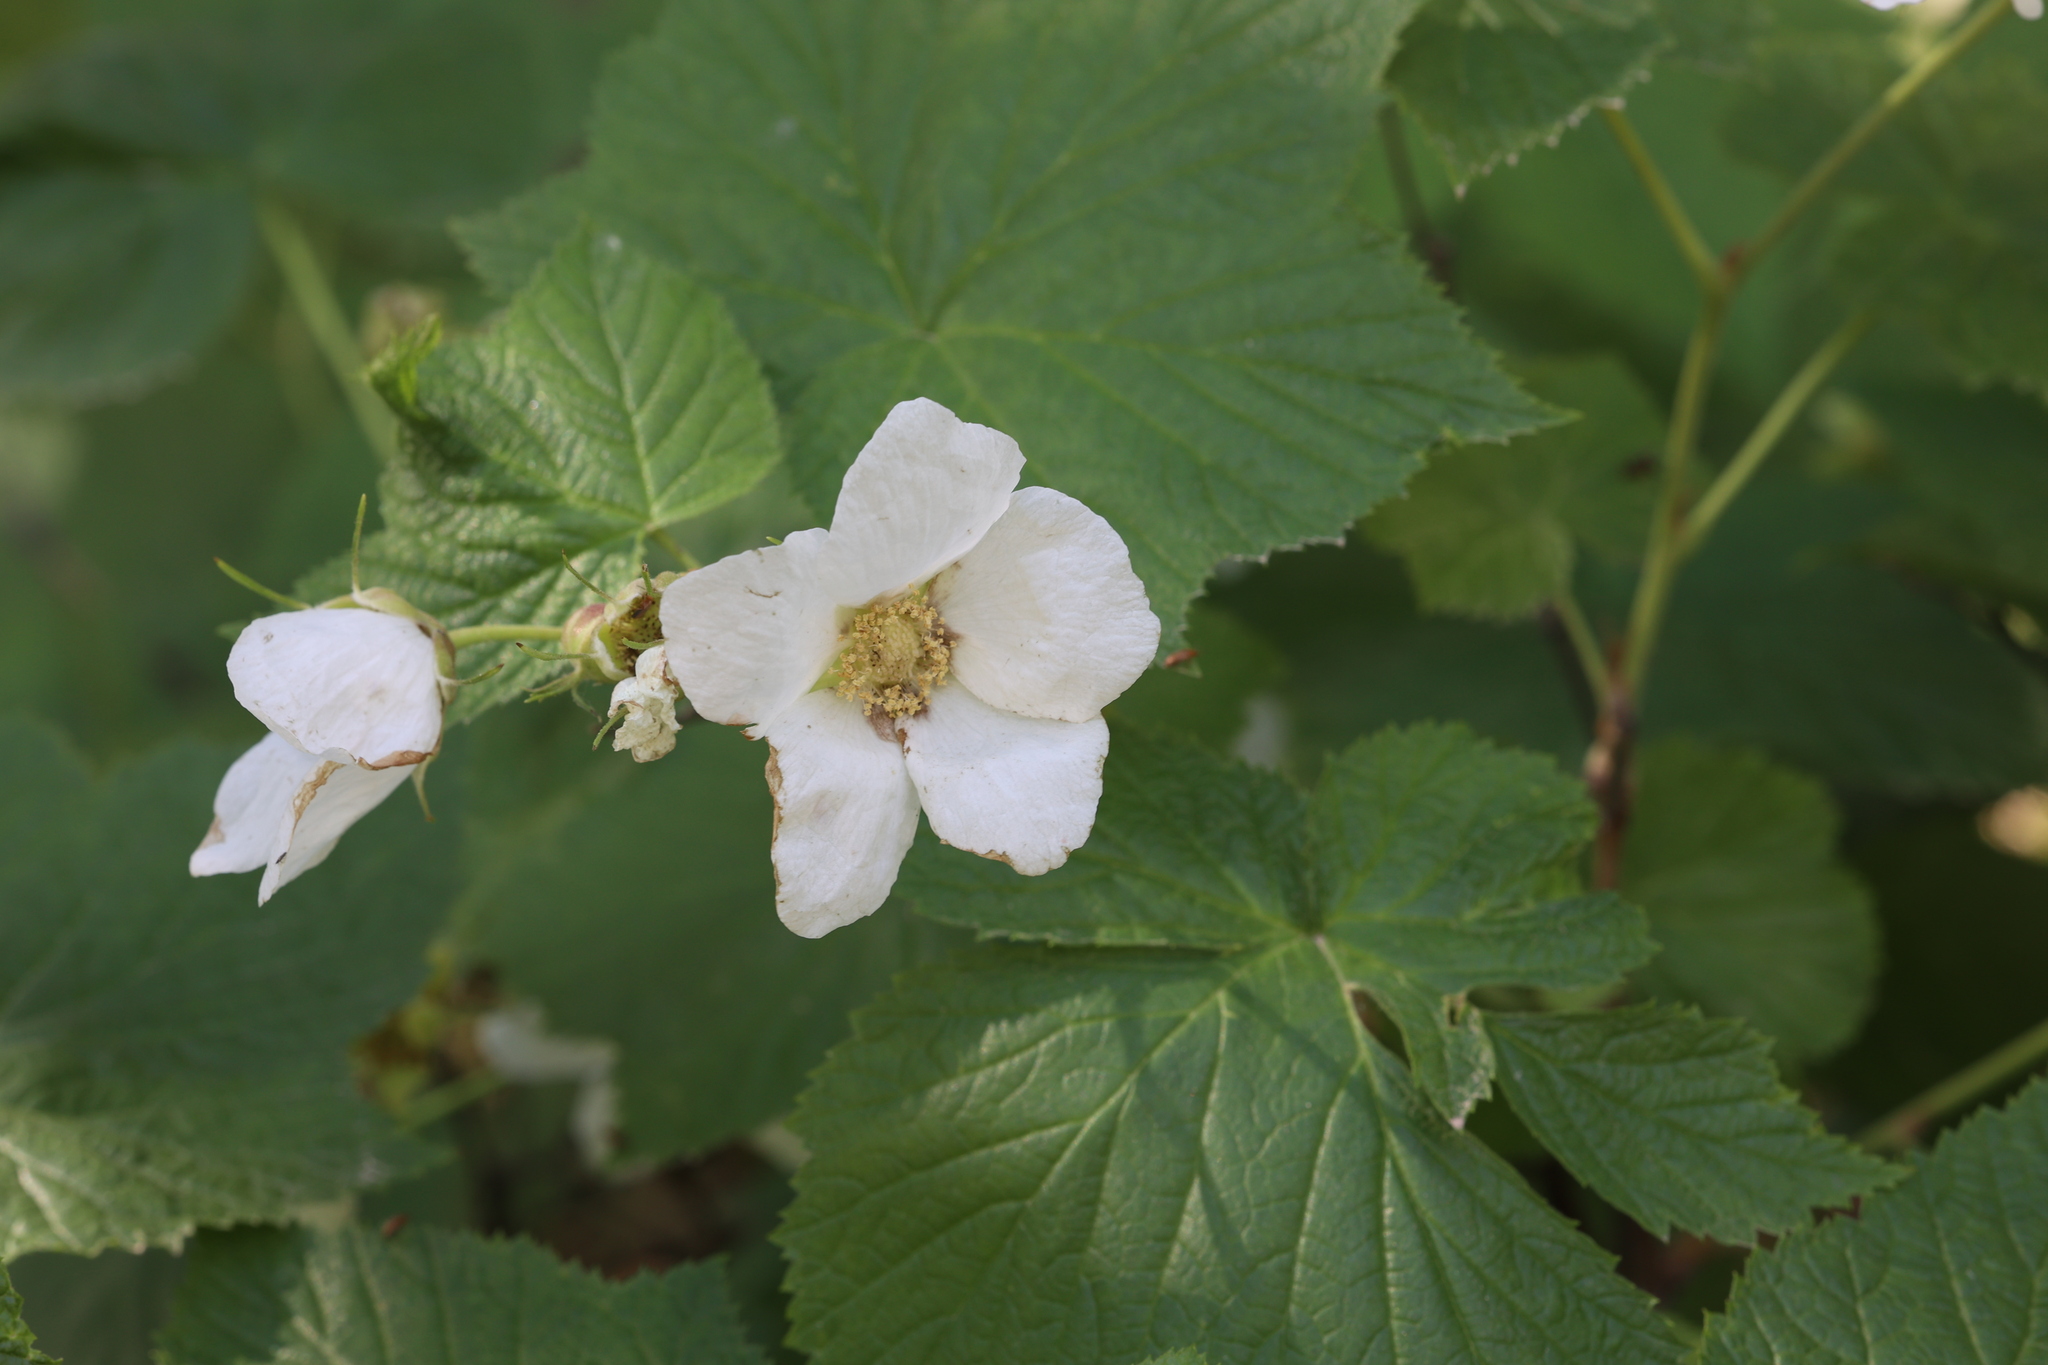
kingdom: Plantae
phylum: Tracheophyta
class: Magnoliopsida
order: Rosales
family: Rosaceae
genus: Rubus
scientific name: Rubus parviflorus
